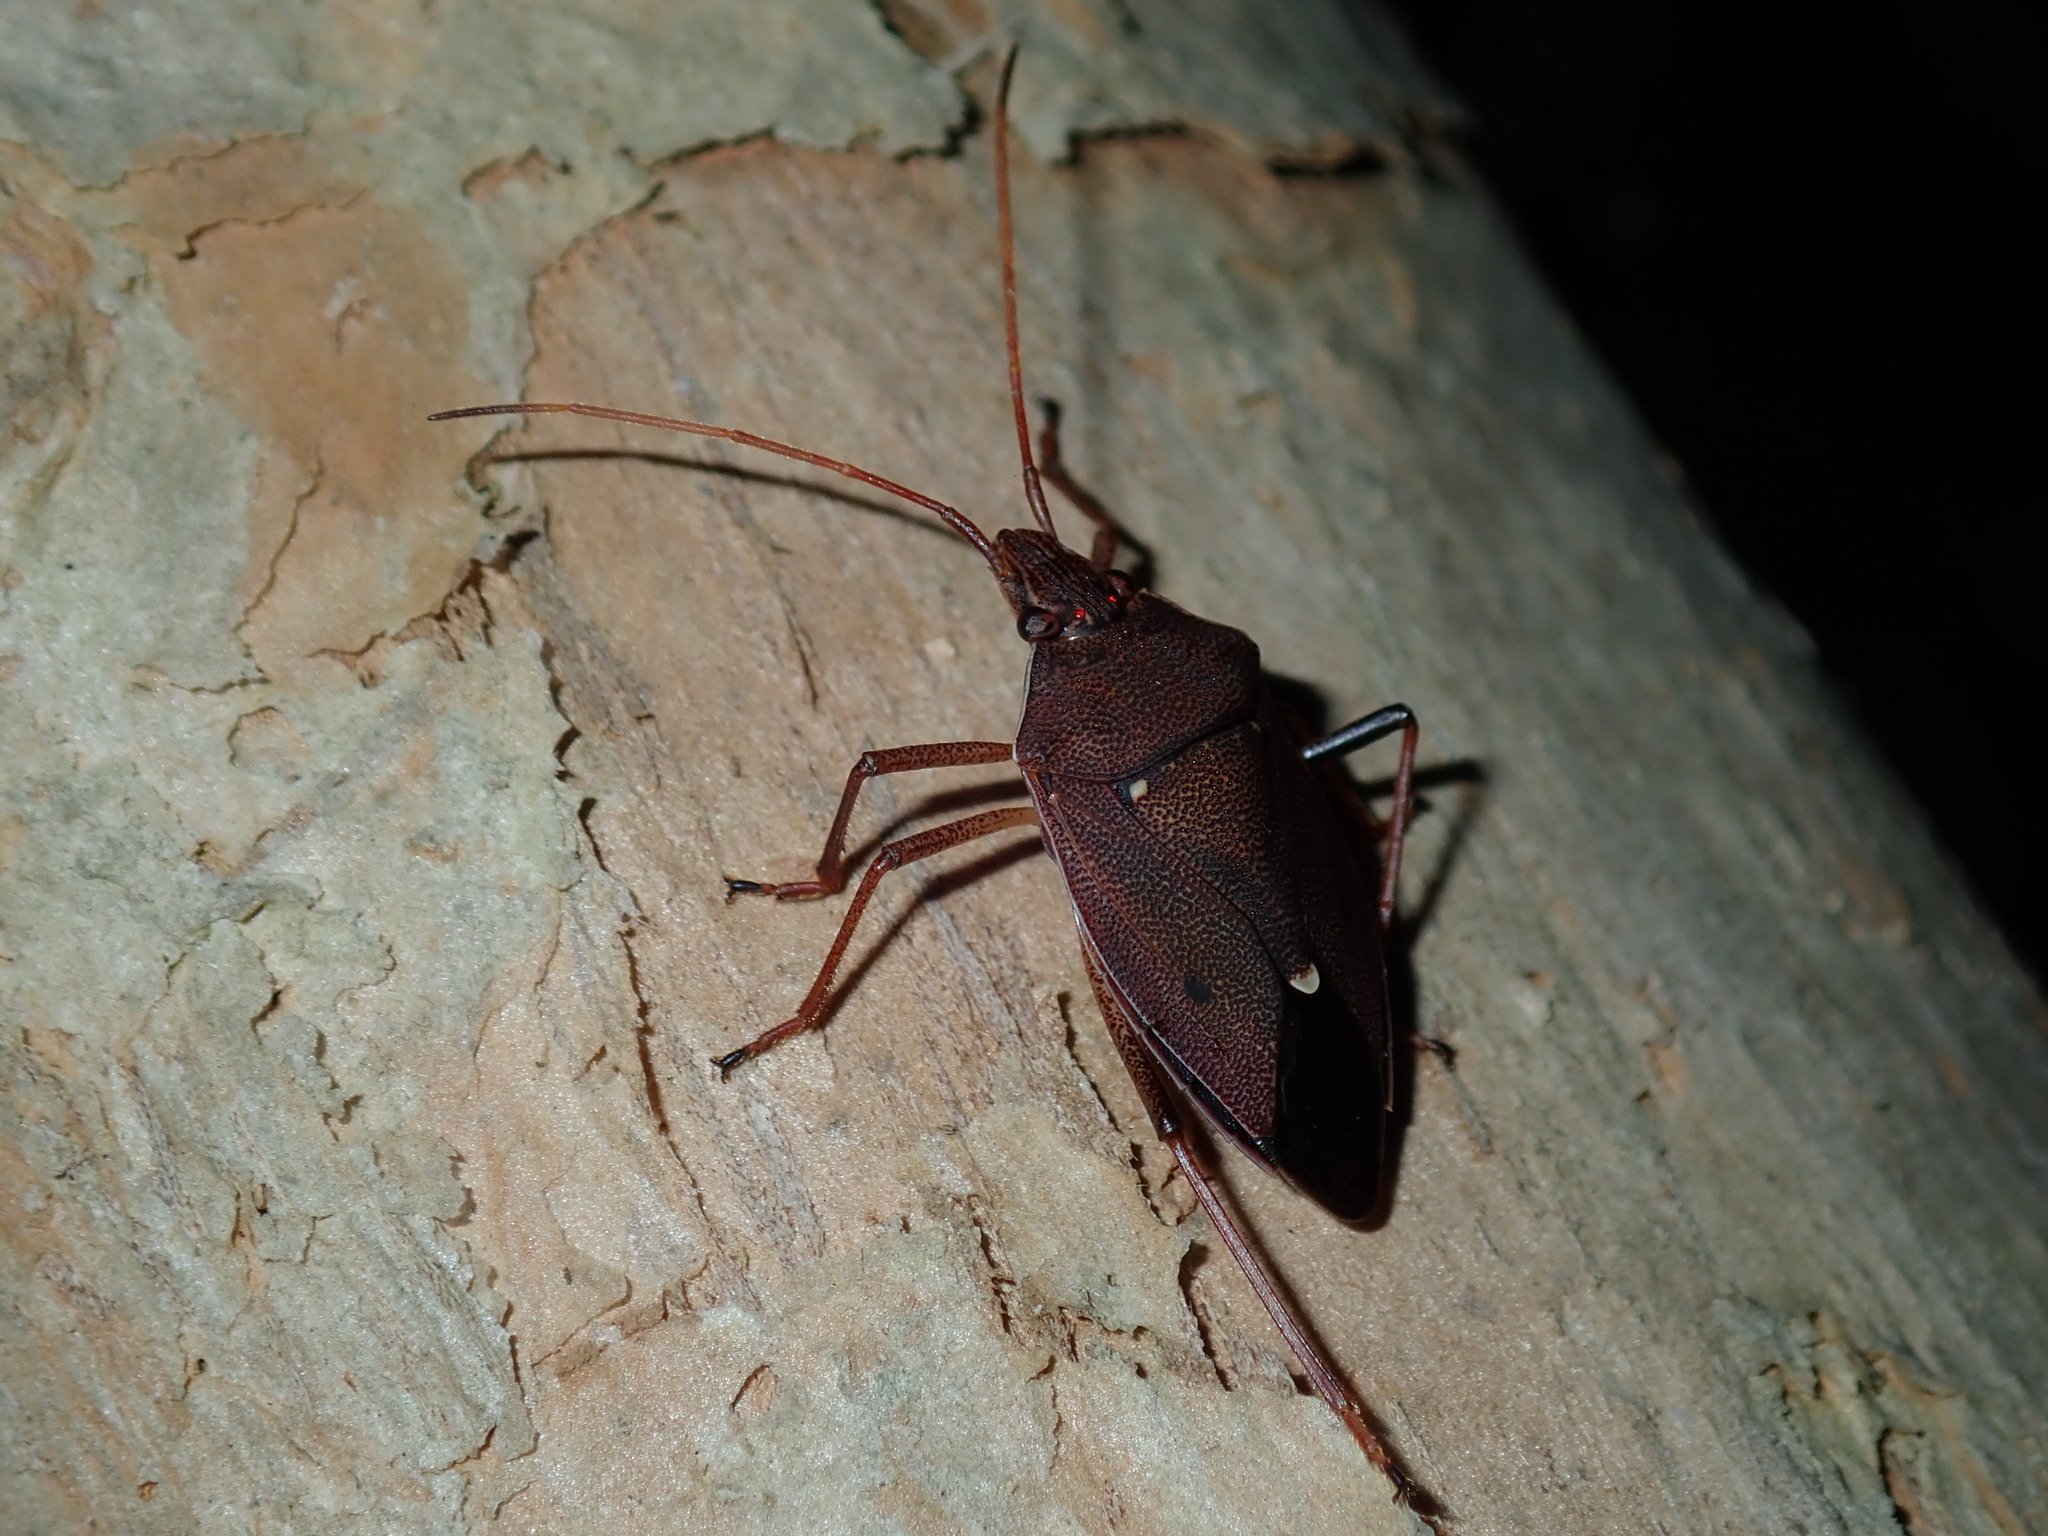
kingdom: Animalia
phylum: Arthropoda
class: Insecta
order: Hemiptera
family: Pentatomidae
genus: Poecilometis
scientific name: Poecilometis
